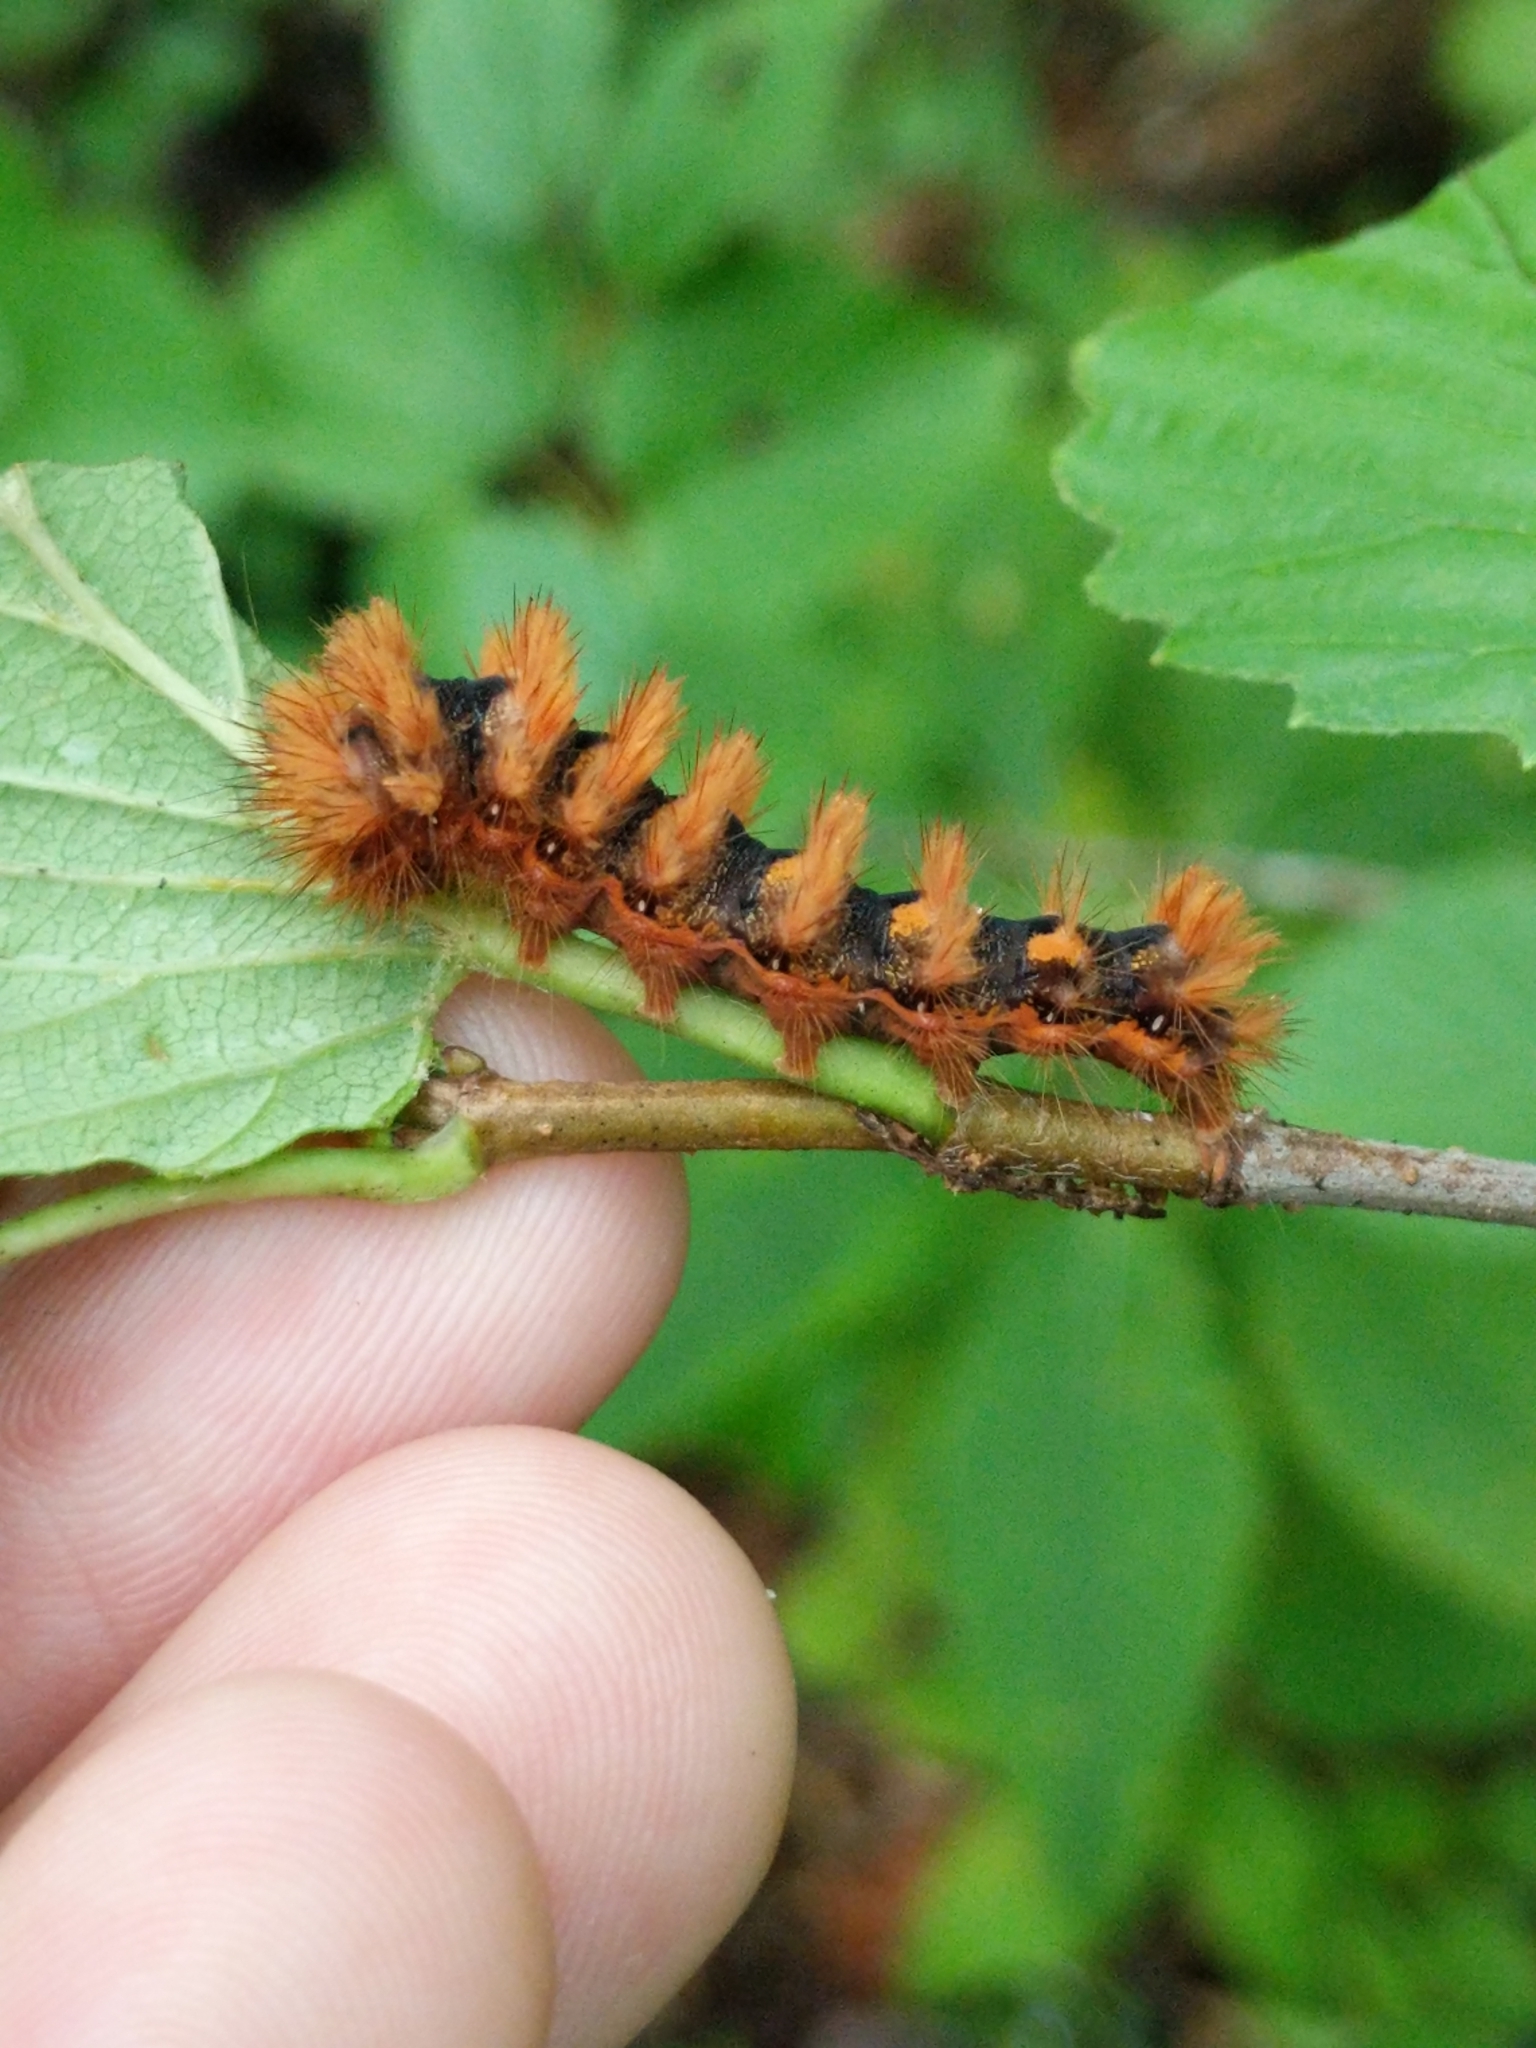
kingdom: Animalia
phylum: Arthropoda
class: Insecta
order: Lepidoptera
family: Noctuidae
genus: Acronicta
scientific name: Acronicta longa
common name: Long-winged dagger
